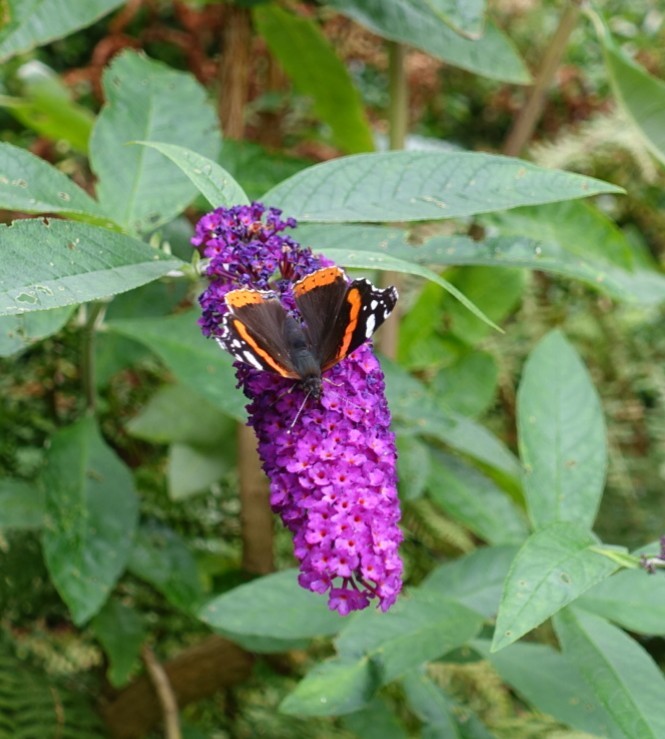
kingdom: Animalia
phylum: Arthropoda
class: Insecta
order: Lepidoptera
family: Nymphalidae
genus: Vanessa
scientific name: Vanessa atalanta
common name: Red admiral
